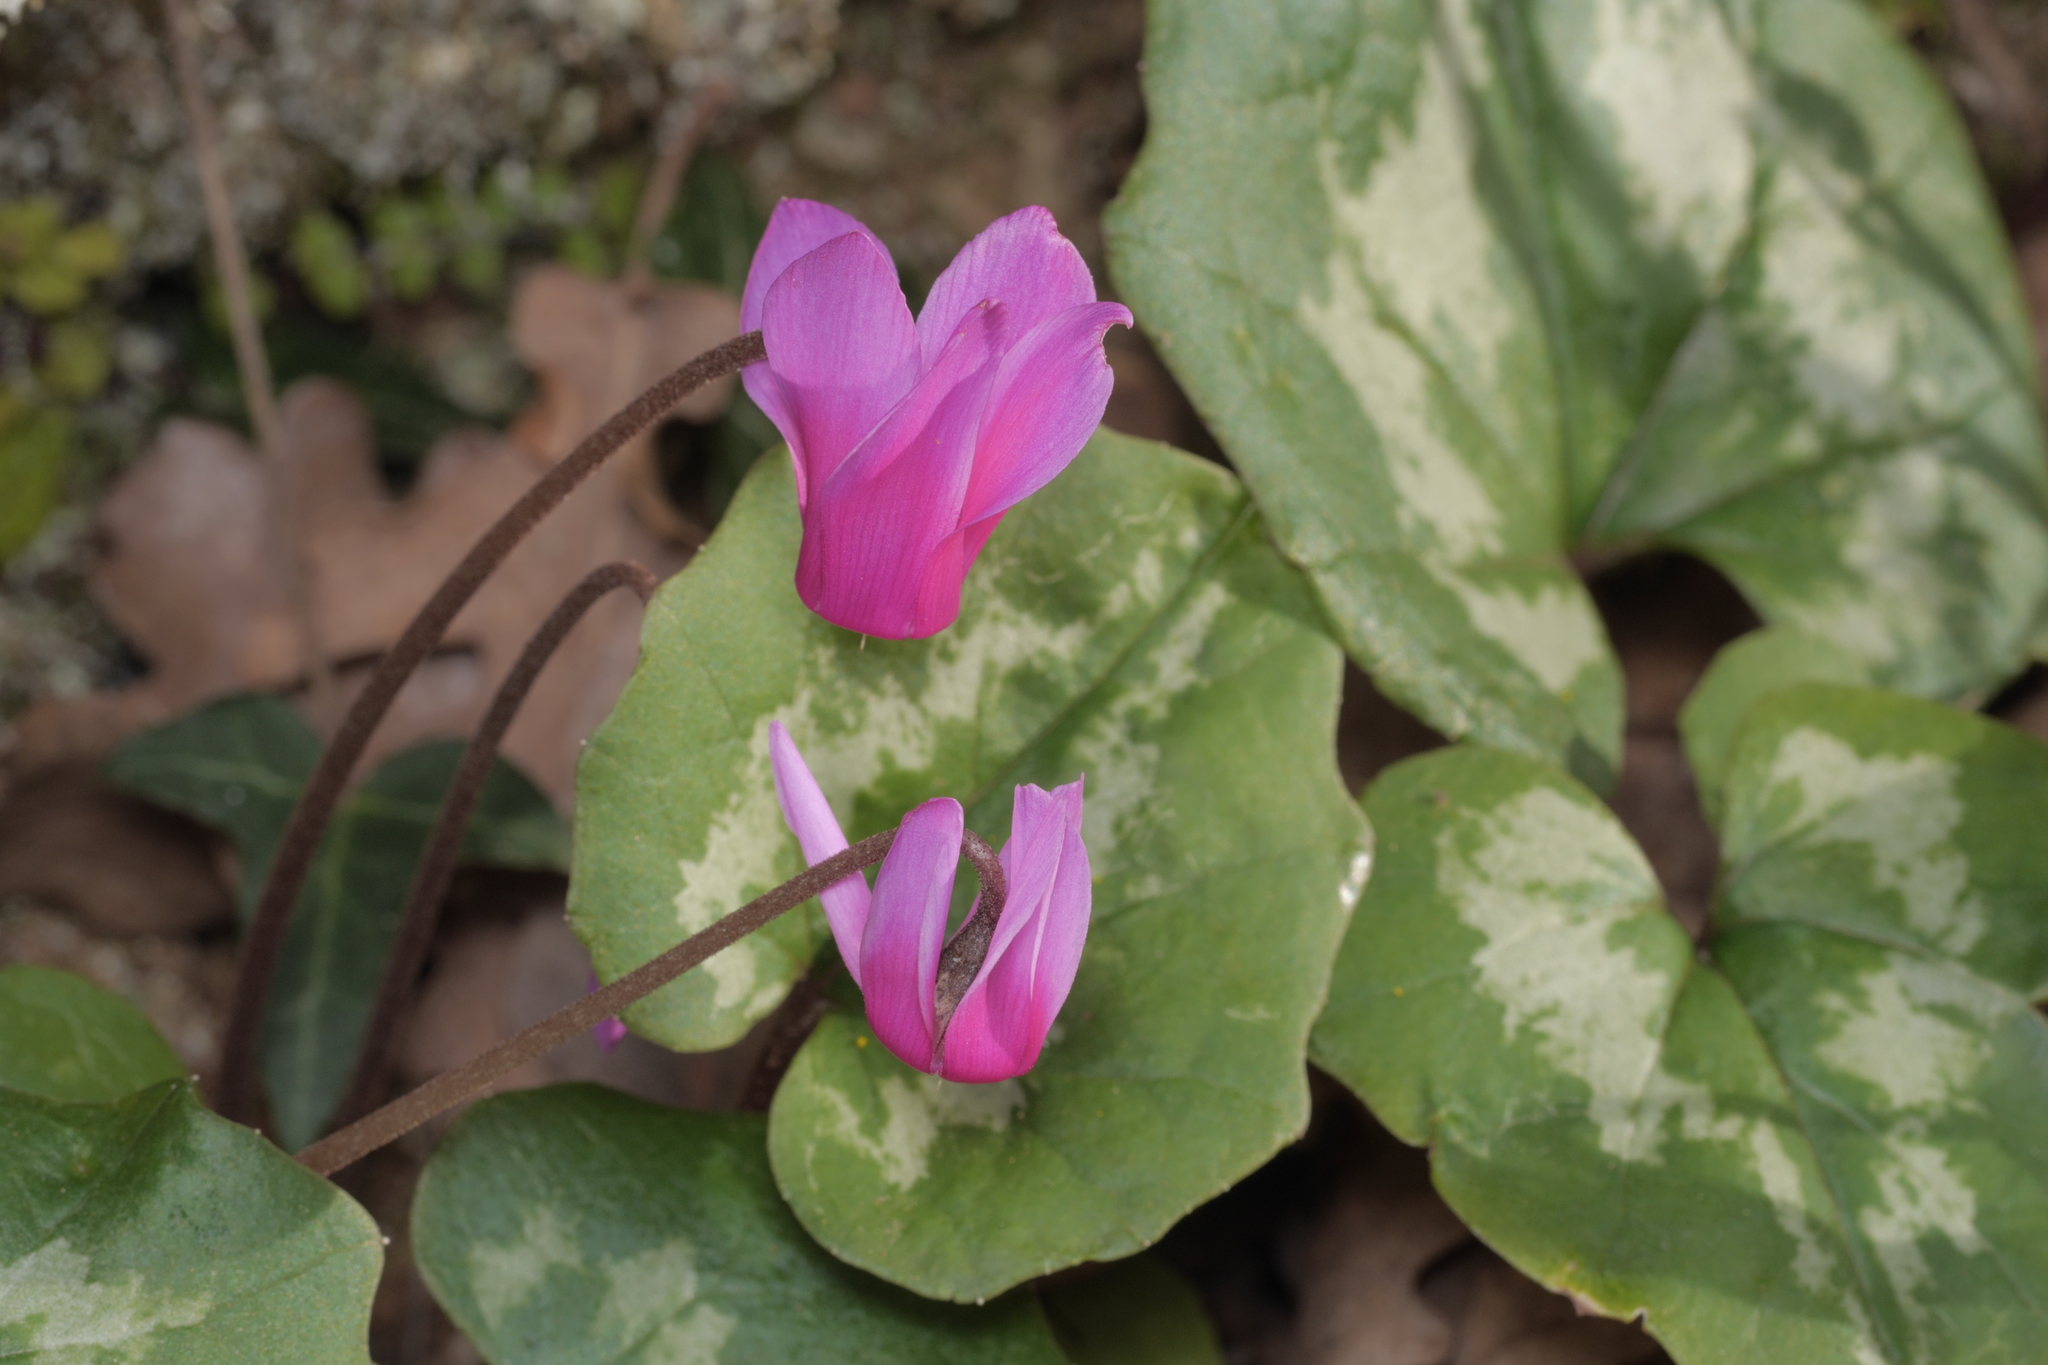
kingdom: Plantae
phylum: Tracheophyta
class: Magnoliopsida
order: Ericales
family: Primulaceae
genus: Cyclamen
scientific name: Cyclamen repandum
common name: Spring sowbread
